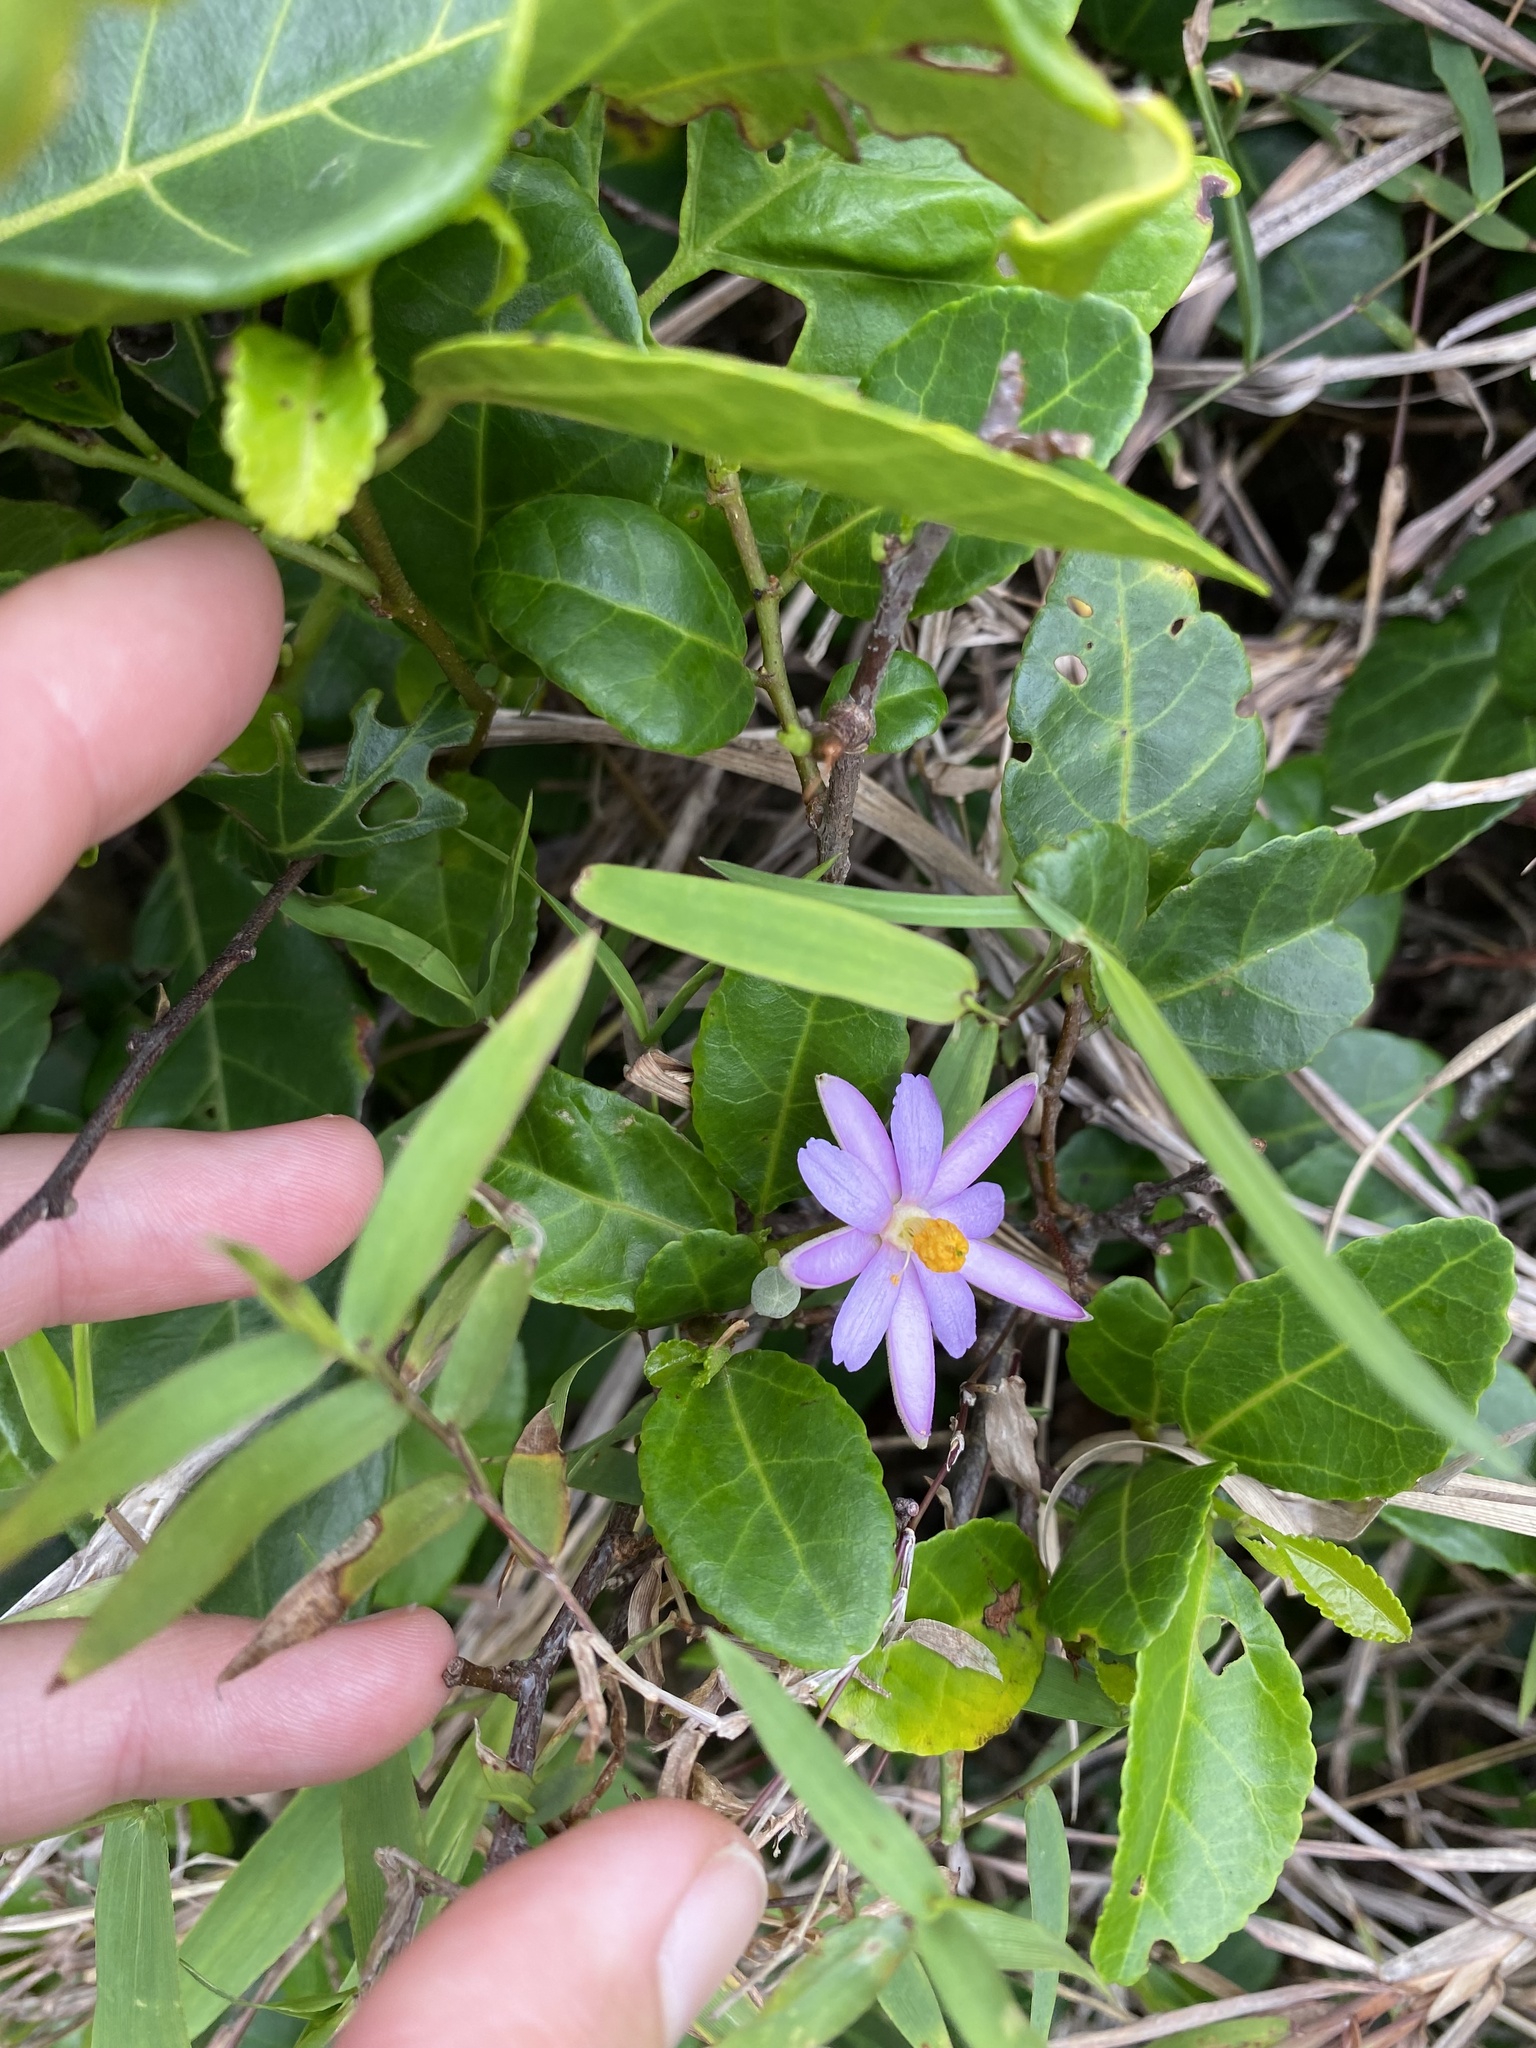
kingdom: Plantae
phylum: Tracheophyta
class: Magnoliopsida
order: Malvales
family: Malvaceae
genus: Grewia
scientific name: Grewia occidentalis
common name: Crossberry
